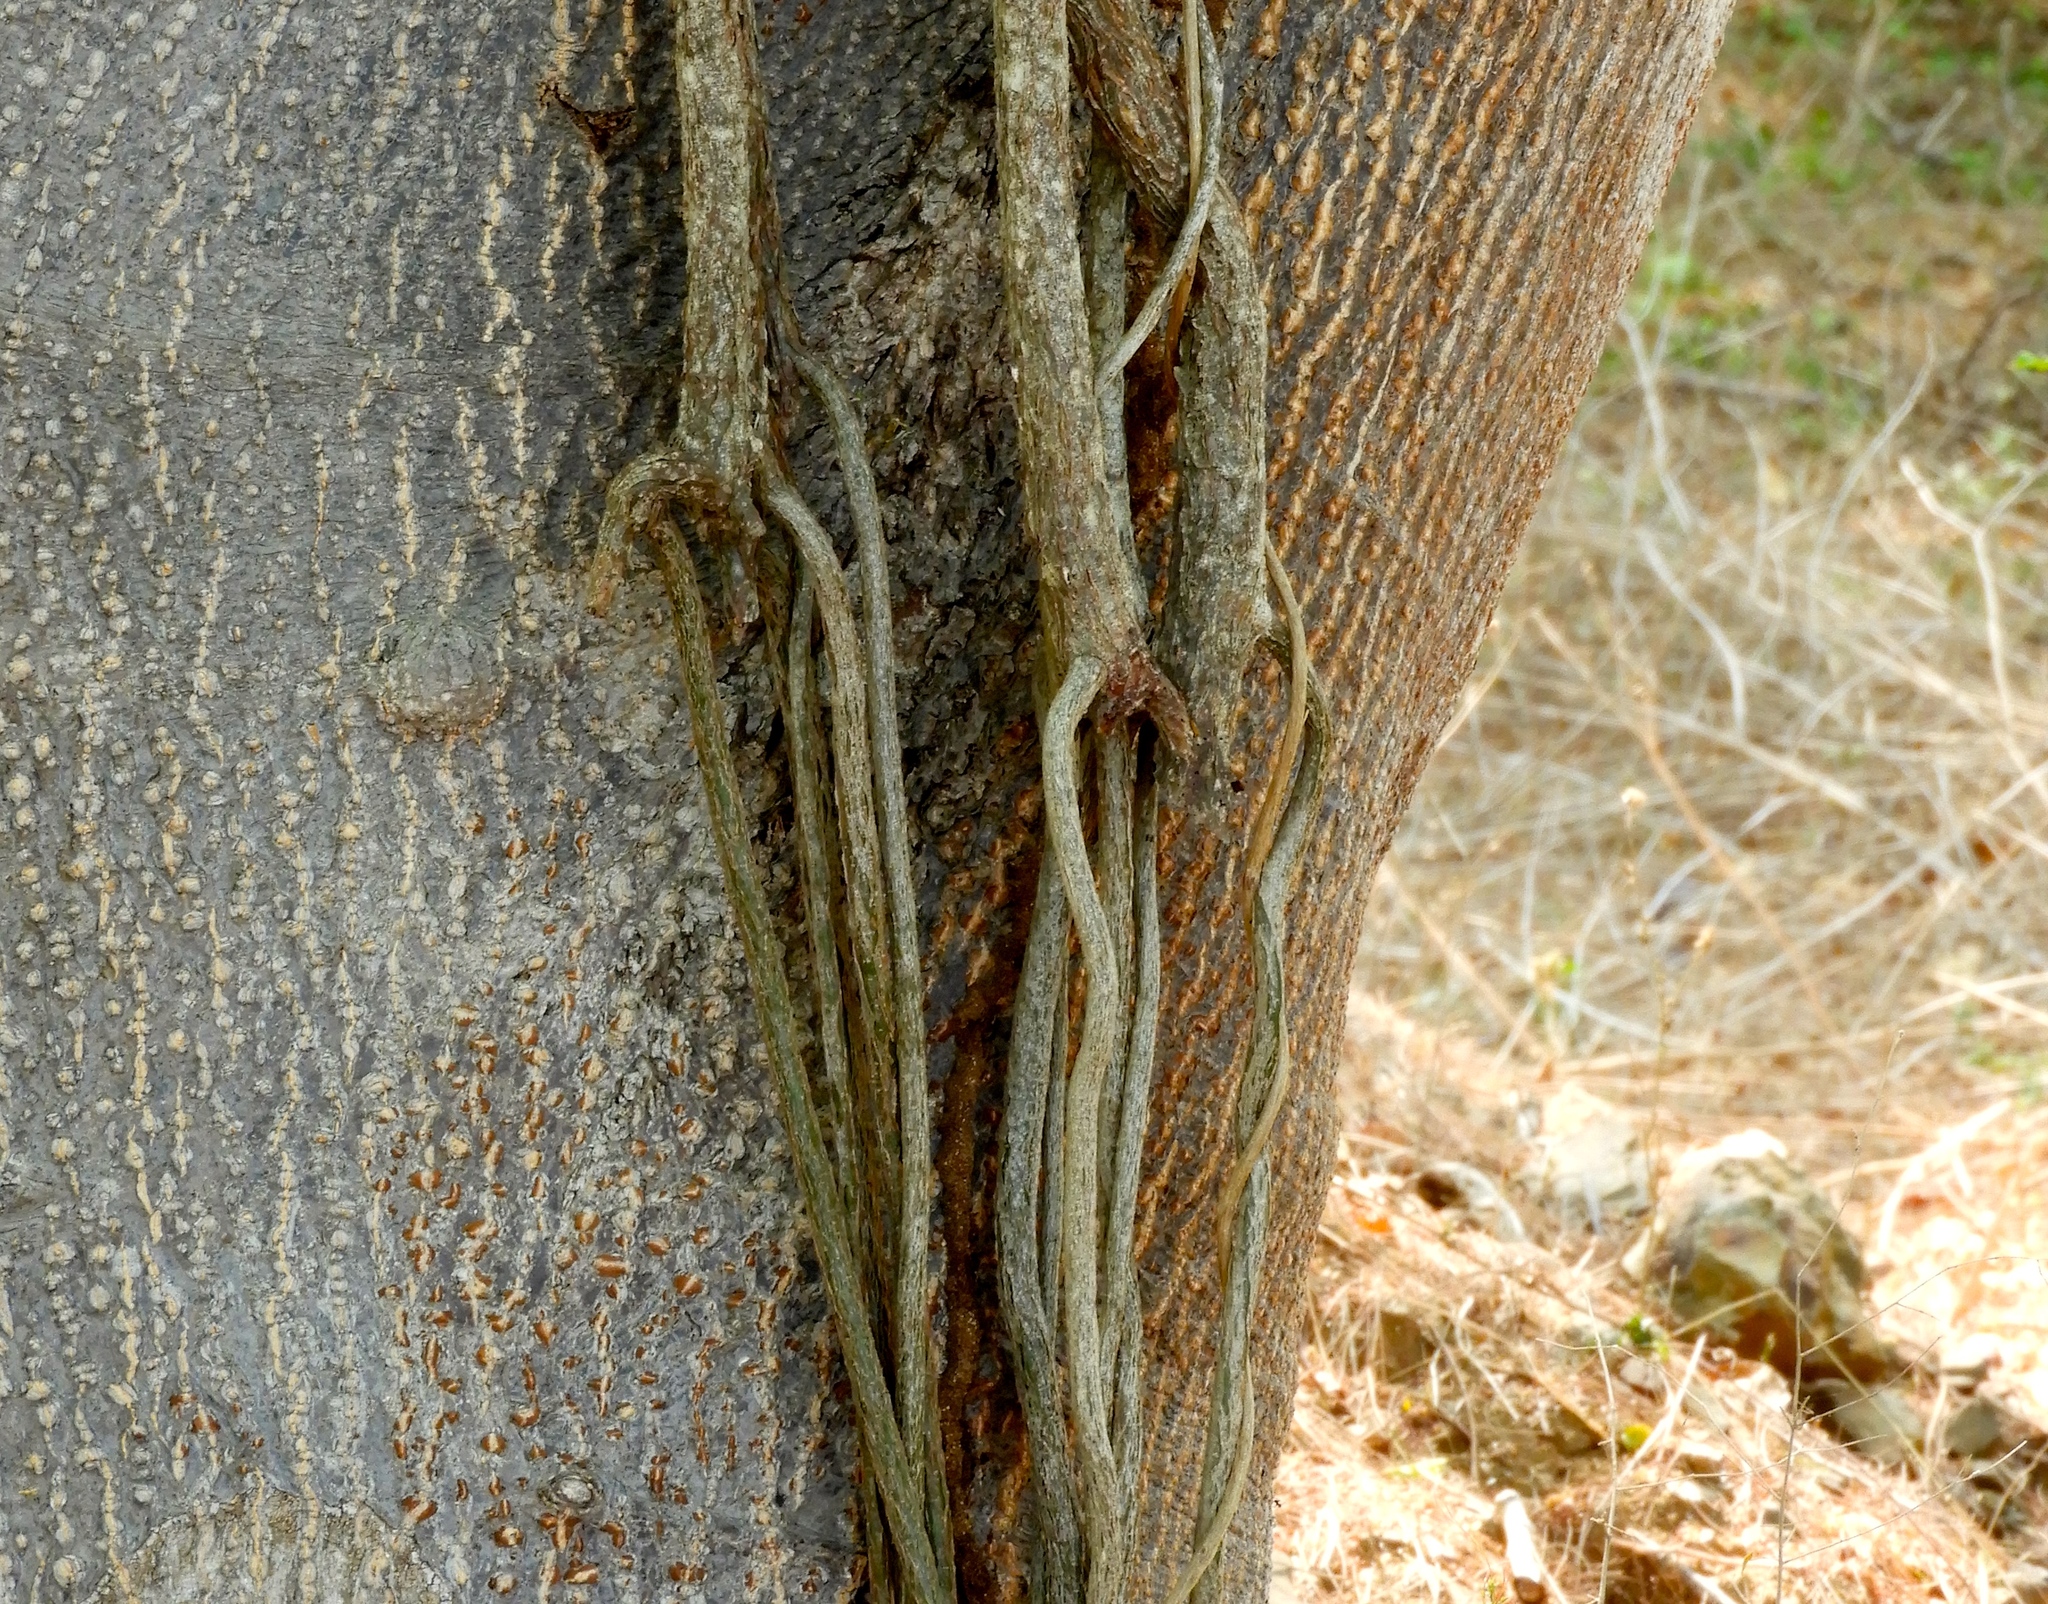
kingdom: Plantae
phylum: Tracheophyta
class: Magnoliopsida
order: Vitales
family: Vitaceae
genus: Cissus
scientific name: Cissus alata
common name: Venezuela treebind
